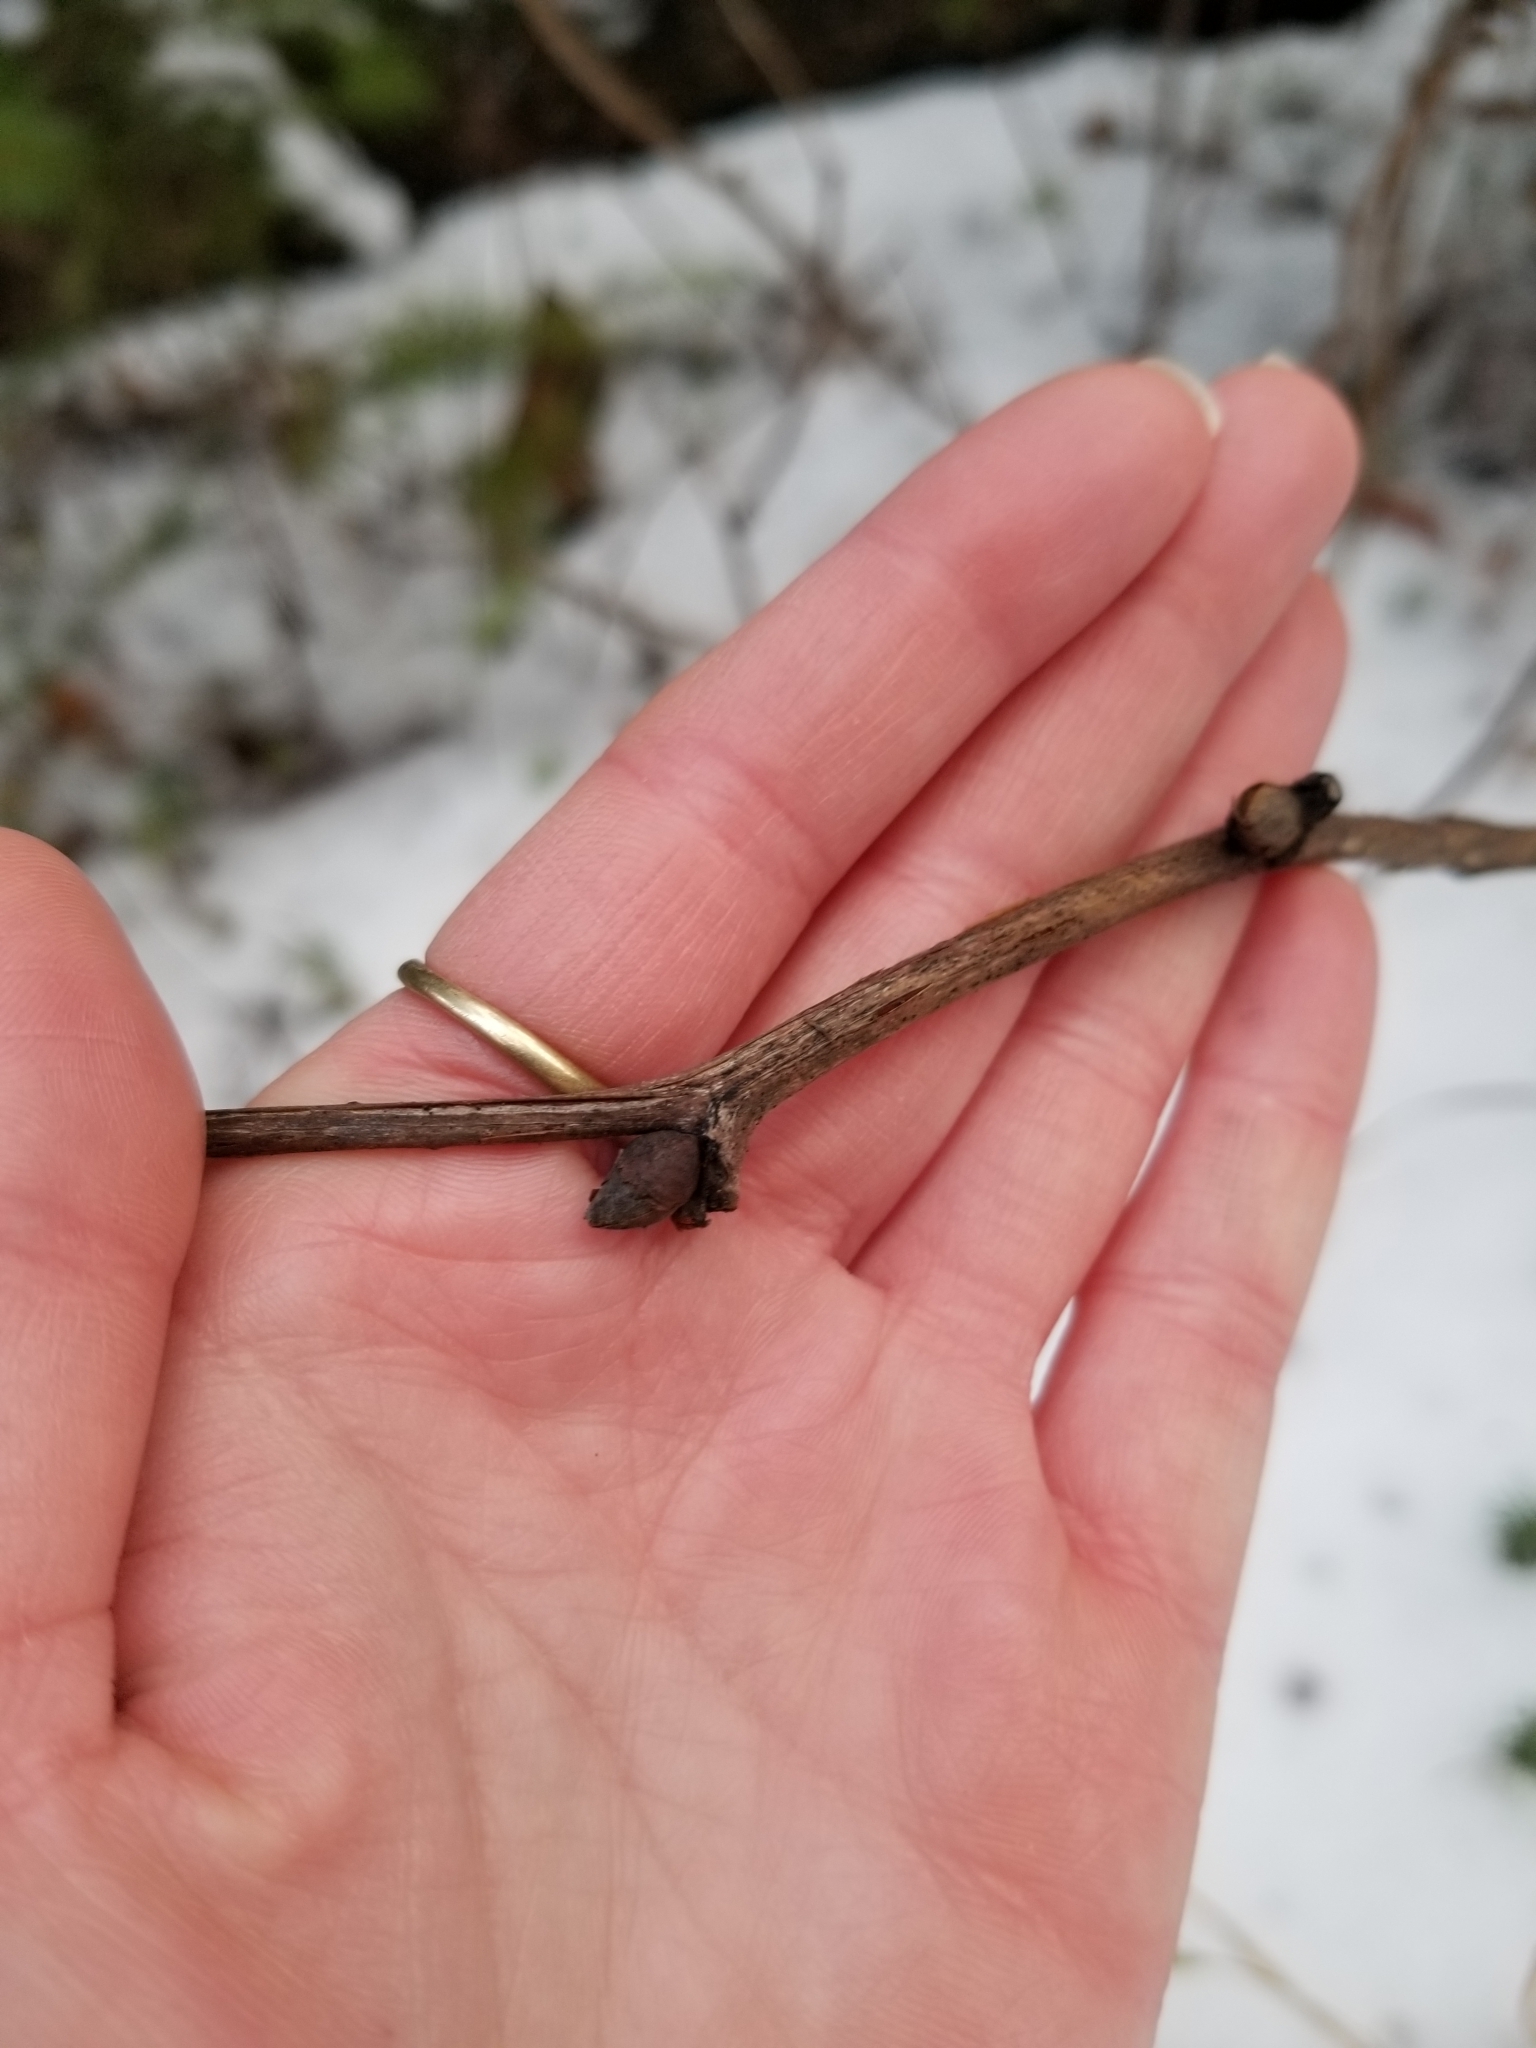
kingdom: Plantae
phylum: Tracheophyta
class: Magnoliopsida
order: Rosales
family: Rosaceae
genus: Rubus
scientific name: Rubus parviflorus
